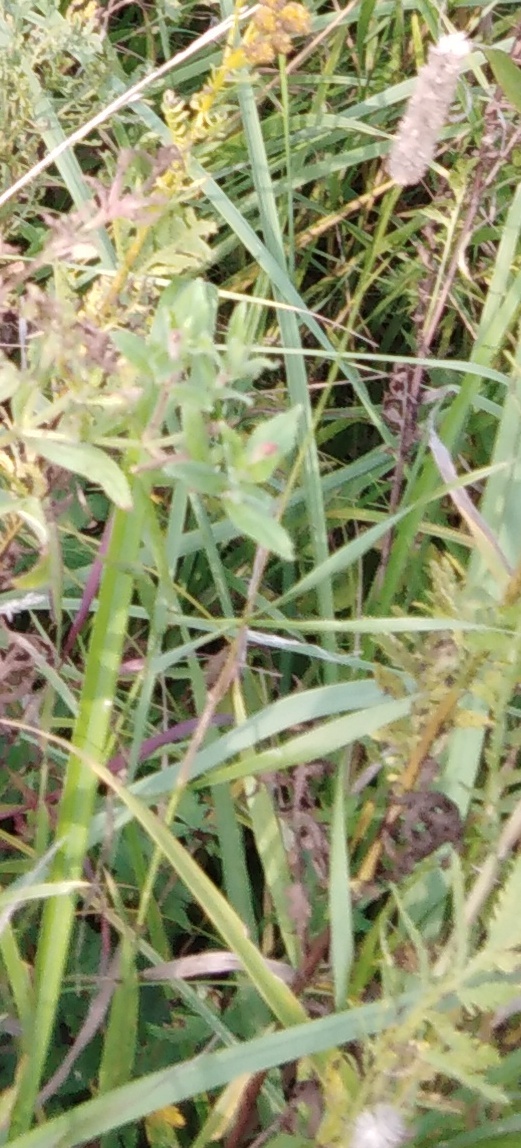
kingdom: Plantae
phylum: Tracheophyta
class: Liliopsida
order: Poales
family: Poaceae
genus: Phleum
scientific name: Phleum pratense
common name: Timothy grass
